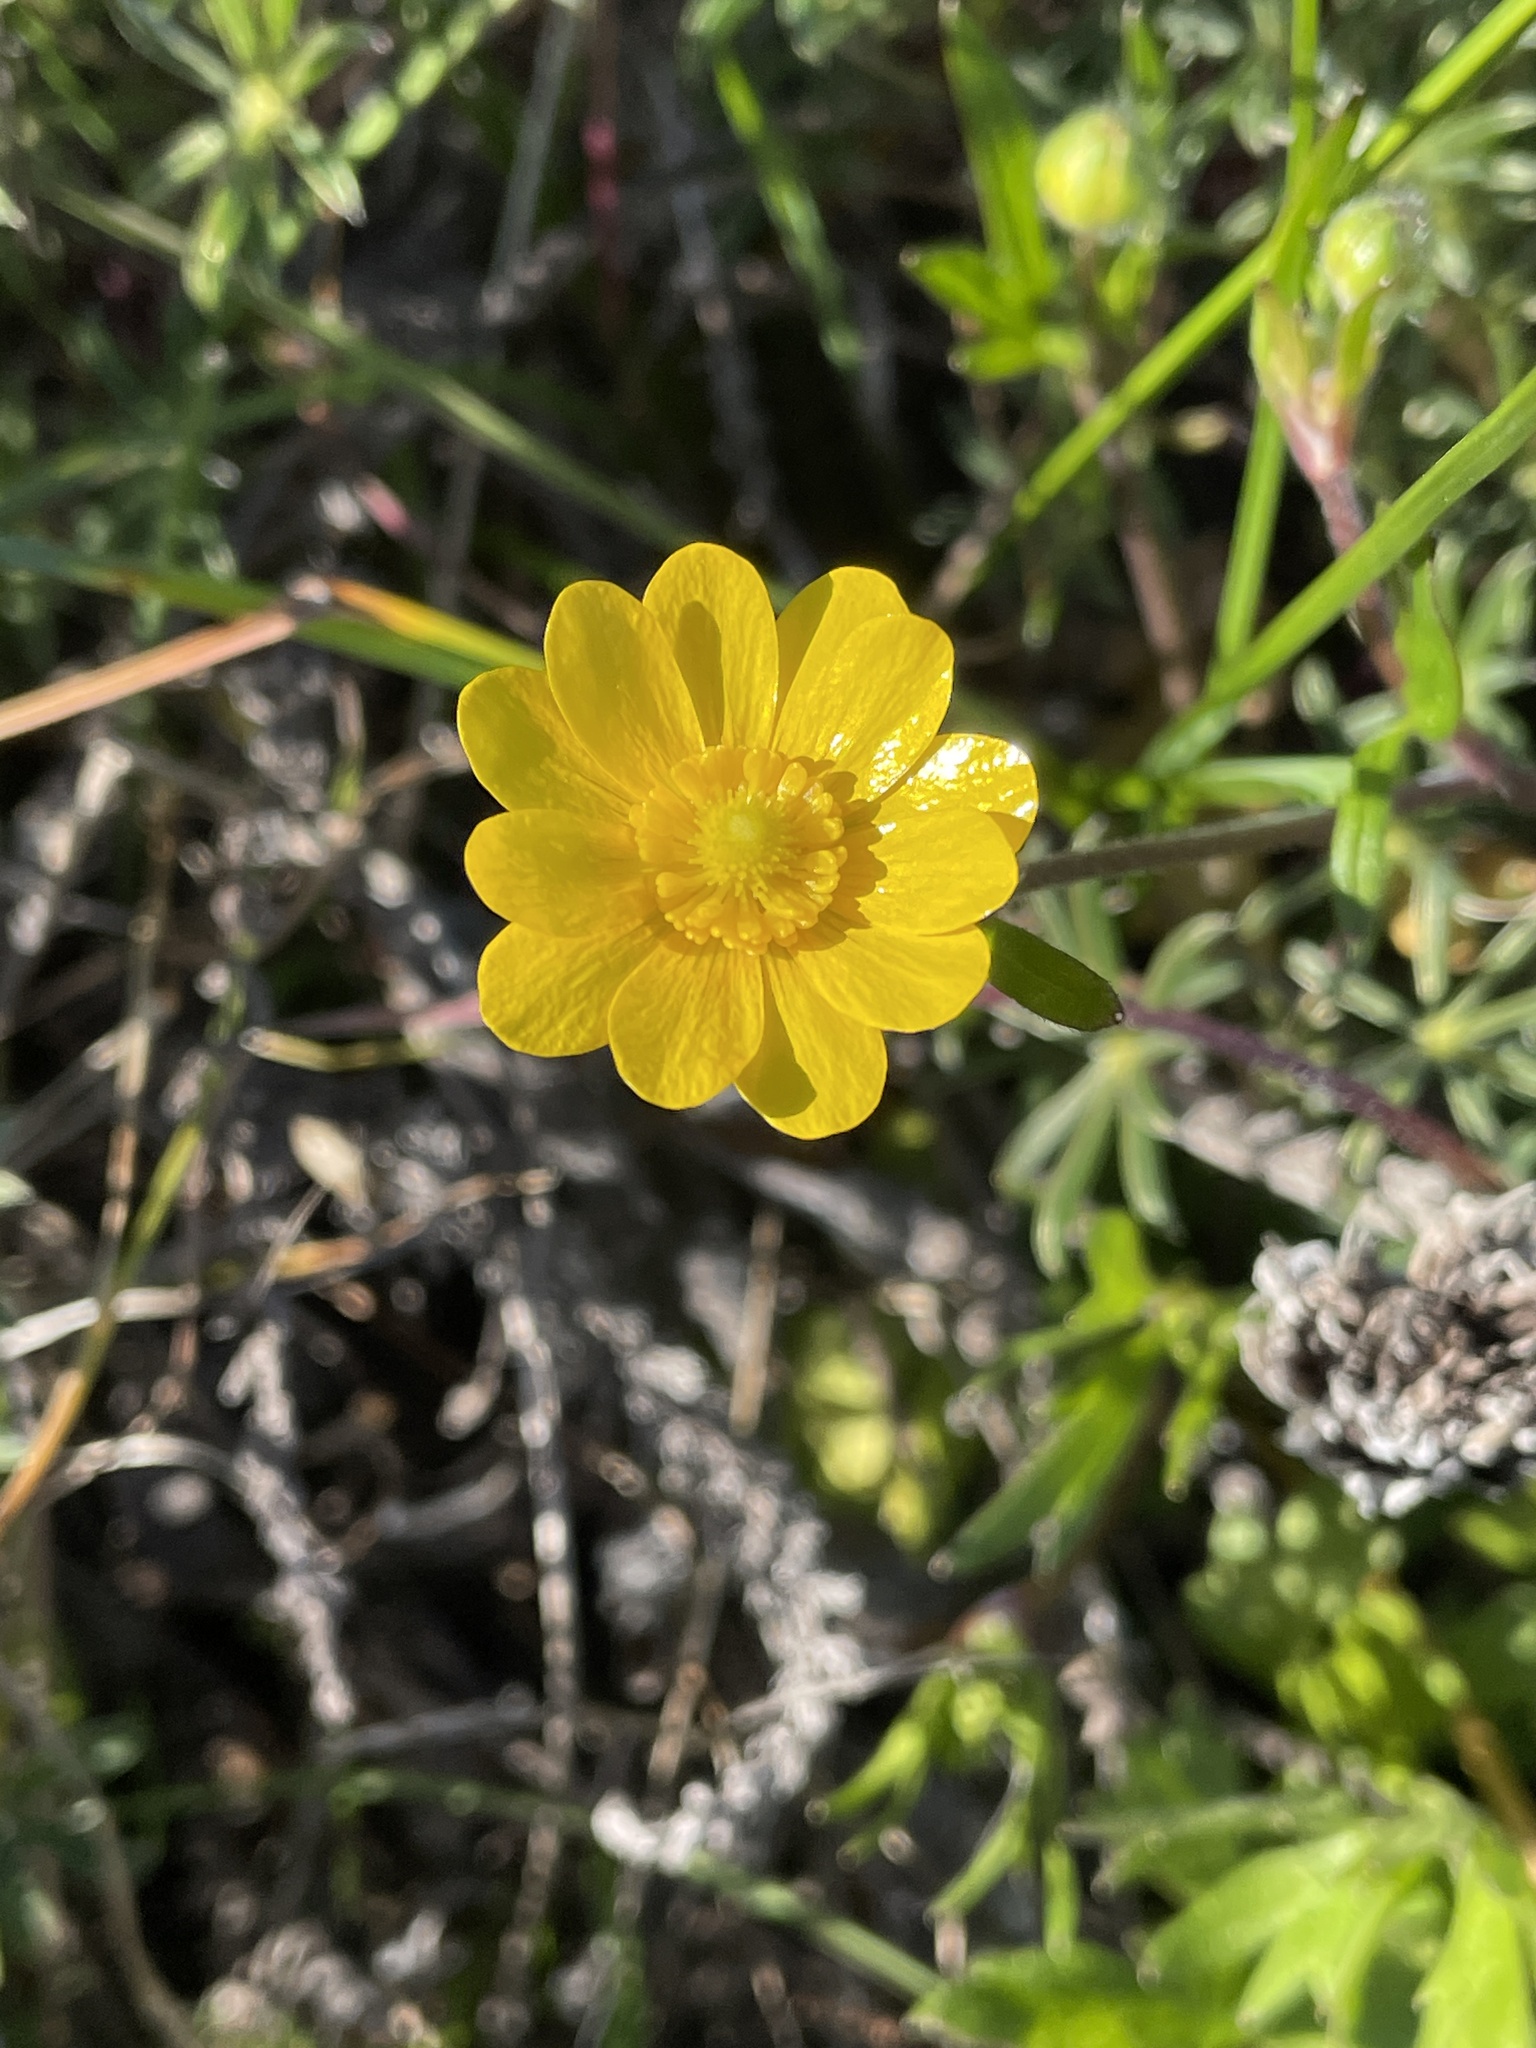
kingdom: Plantae
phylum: Tracheophyta
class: Magnoliopsida
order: Ranunculales
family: Ranunculaceae
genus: Ranunculus
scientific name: Ranunculus californicus
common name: California buttercup
